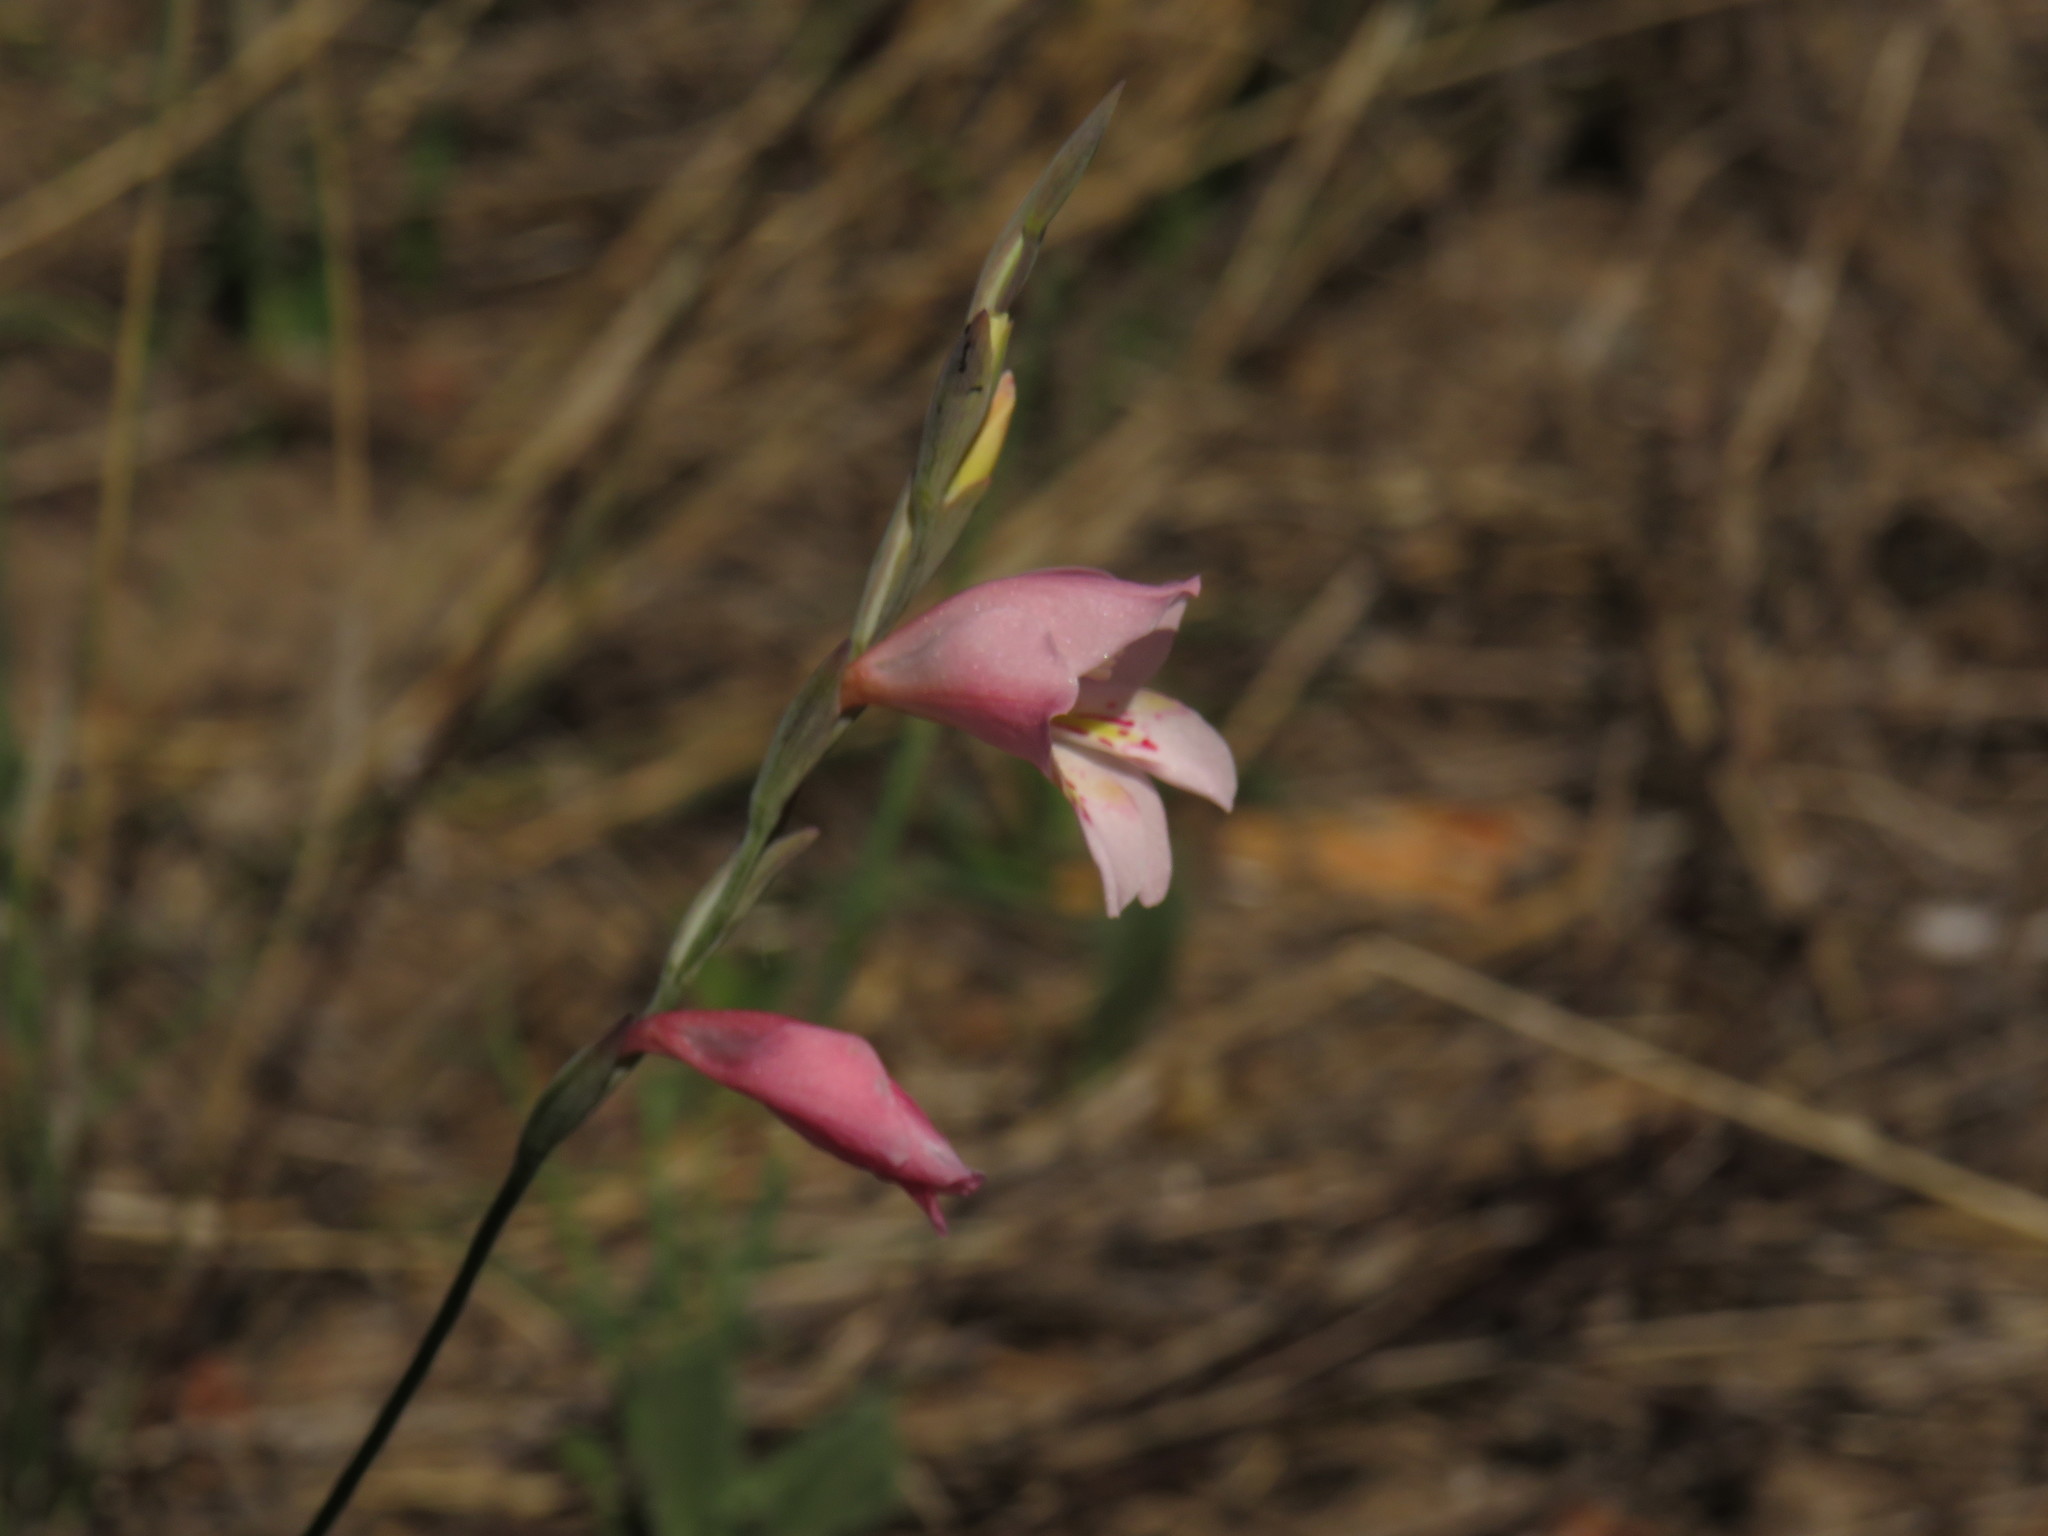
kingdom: Plantae
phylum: Tracheophyta
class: Liliopsida
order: Asparagales
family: Iridaceae
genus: Gladiolus
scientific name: Gladiolus brevifolius
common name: March pypie
